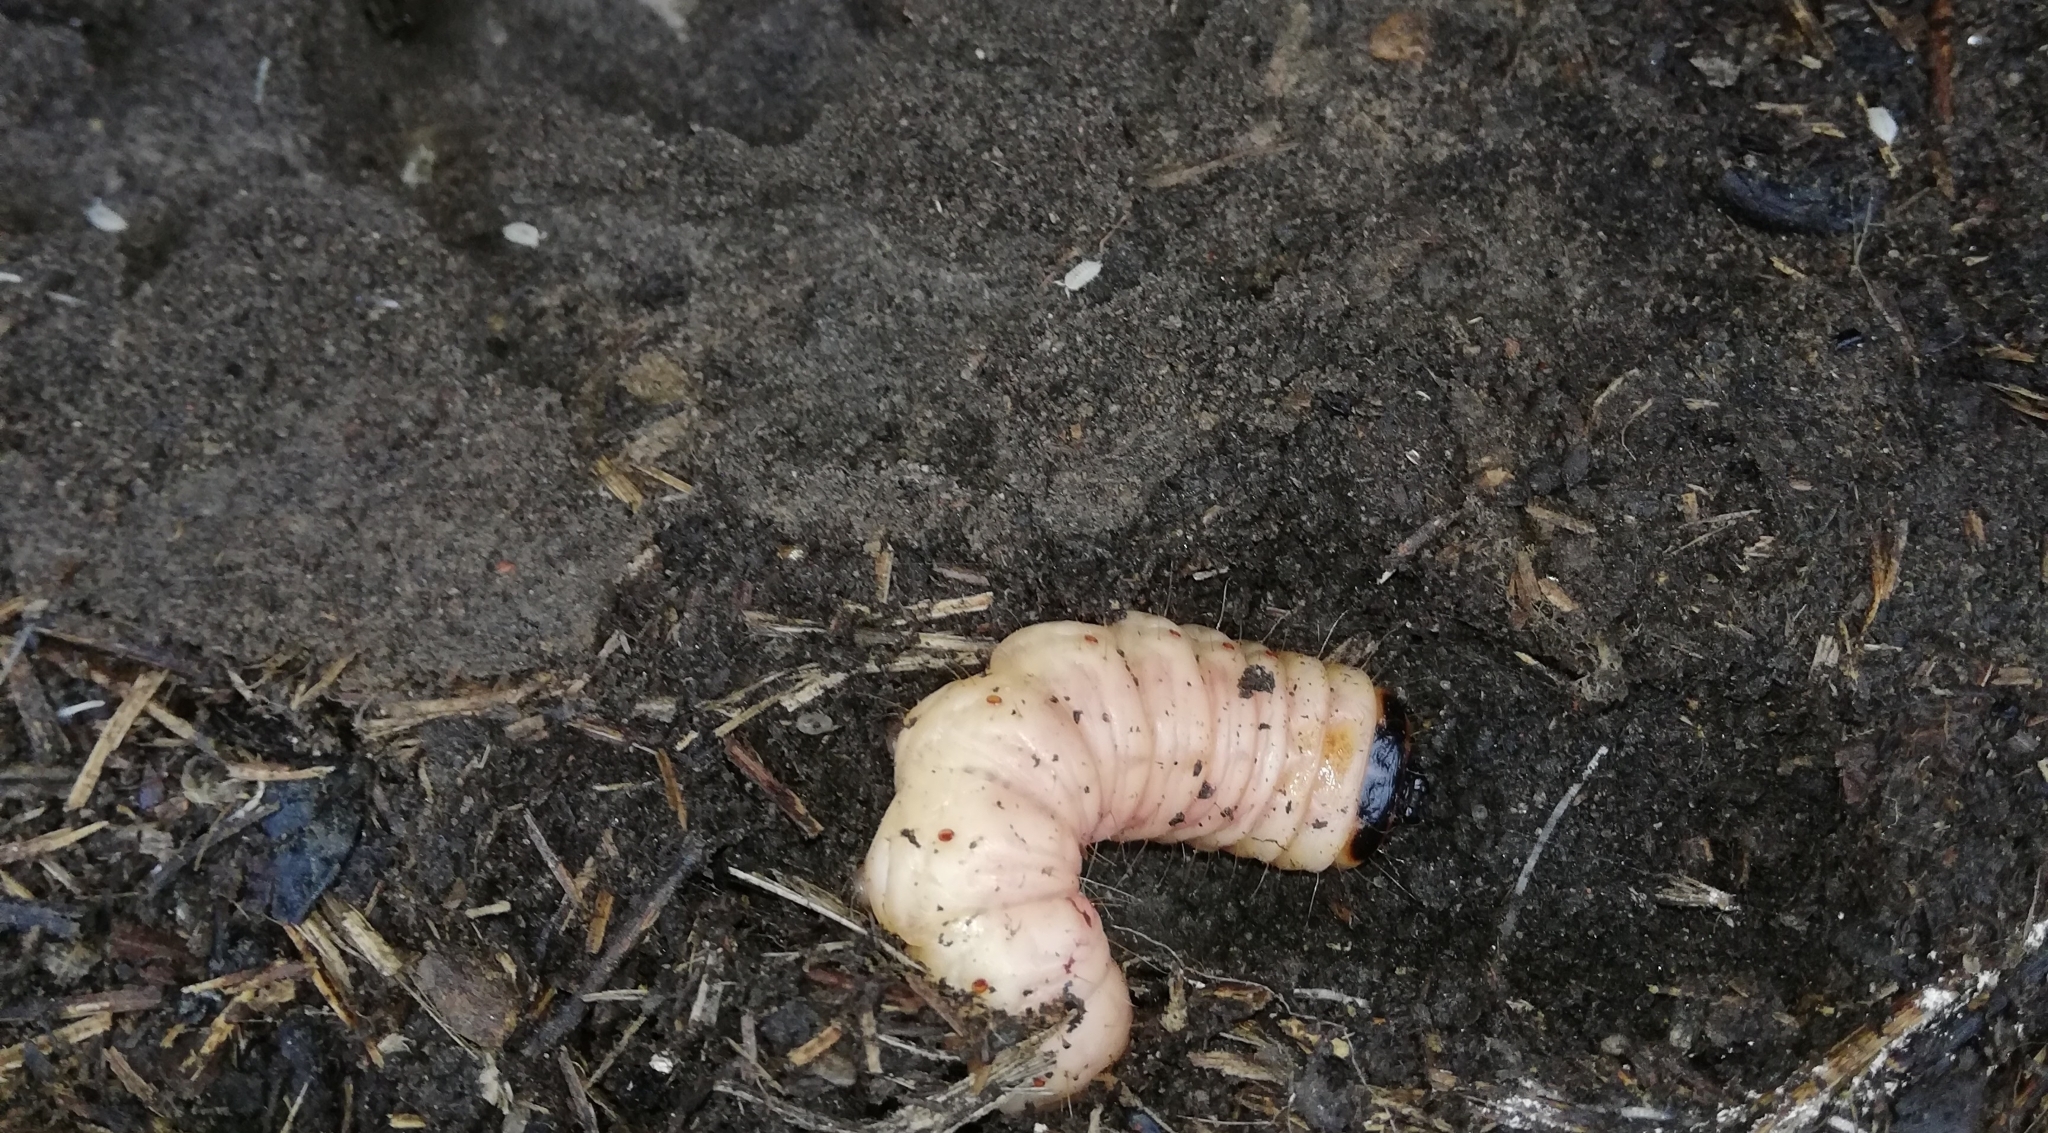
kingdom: Animalia
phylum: Arthropoda
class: Insecta
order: Lepidoptera
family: Cossidae
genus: Cossus
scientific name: Cossus cossus
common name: Goat moth
